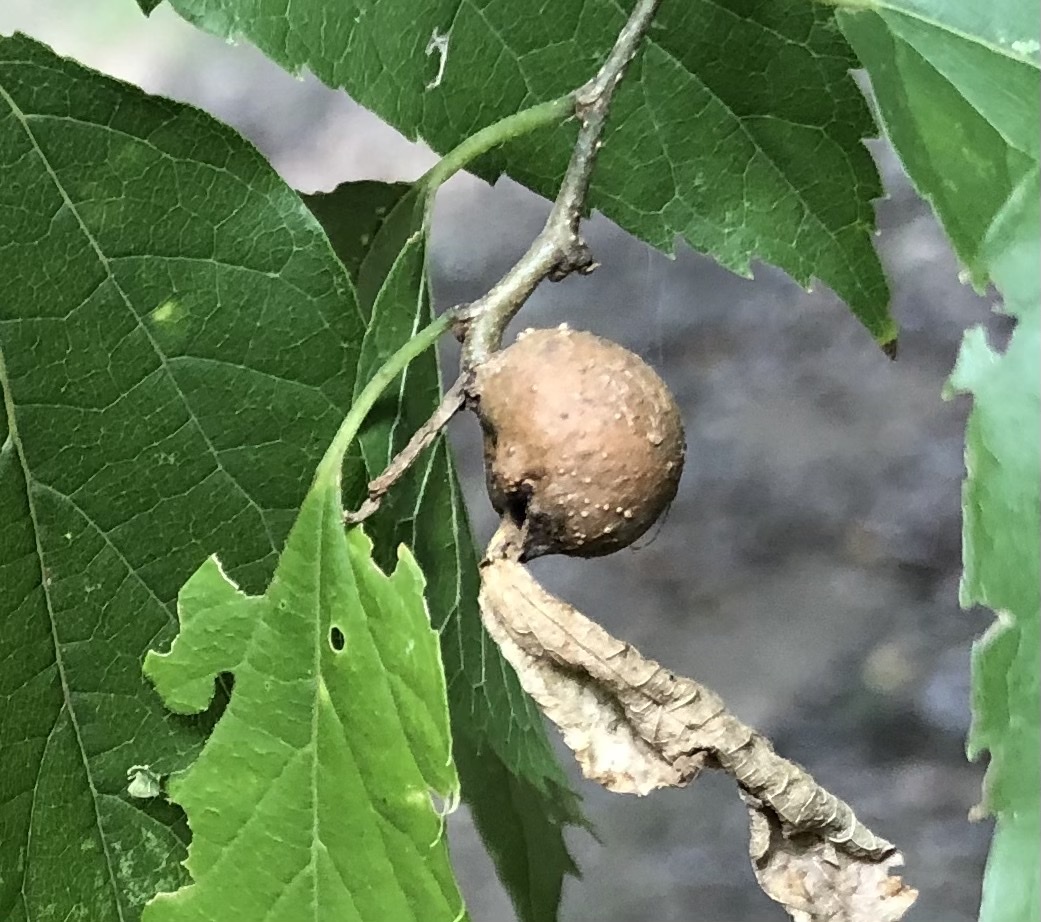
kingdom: Animalia
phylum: Arthropoda
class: Insecta
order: Hemiptera
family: Aphalaridae
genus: Pachypsylla
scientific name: Pachypsylla venusta
